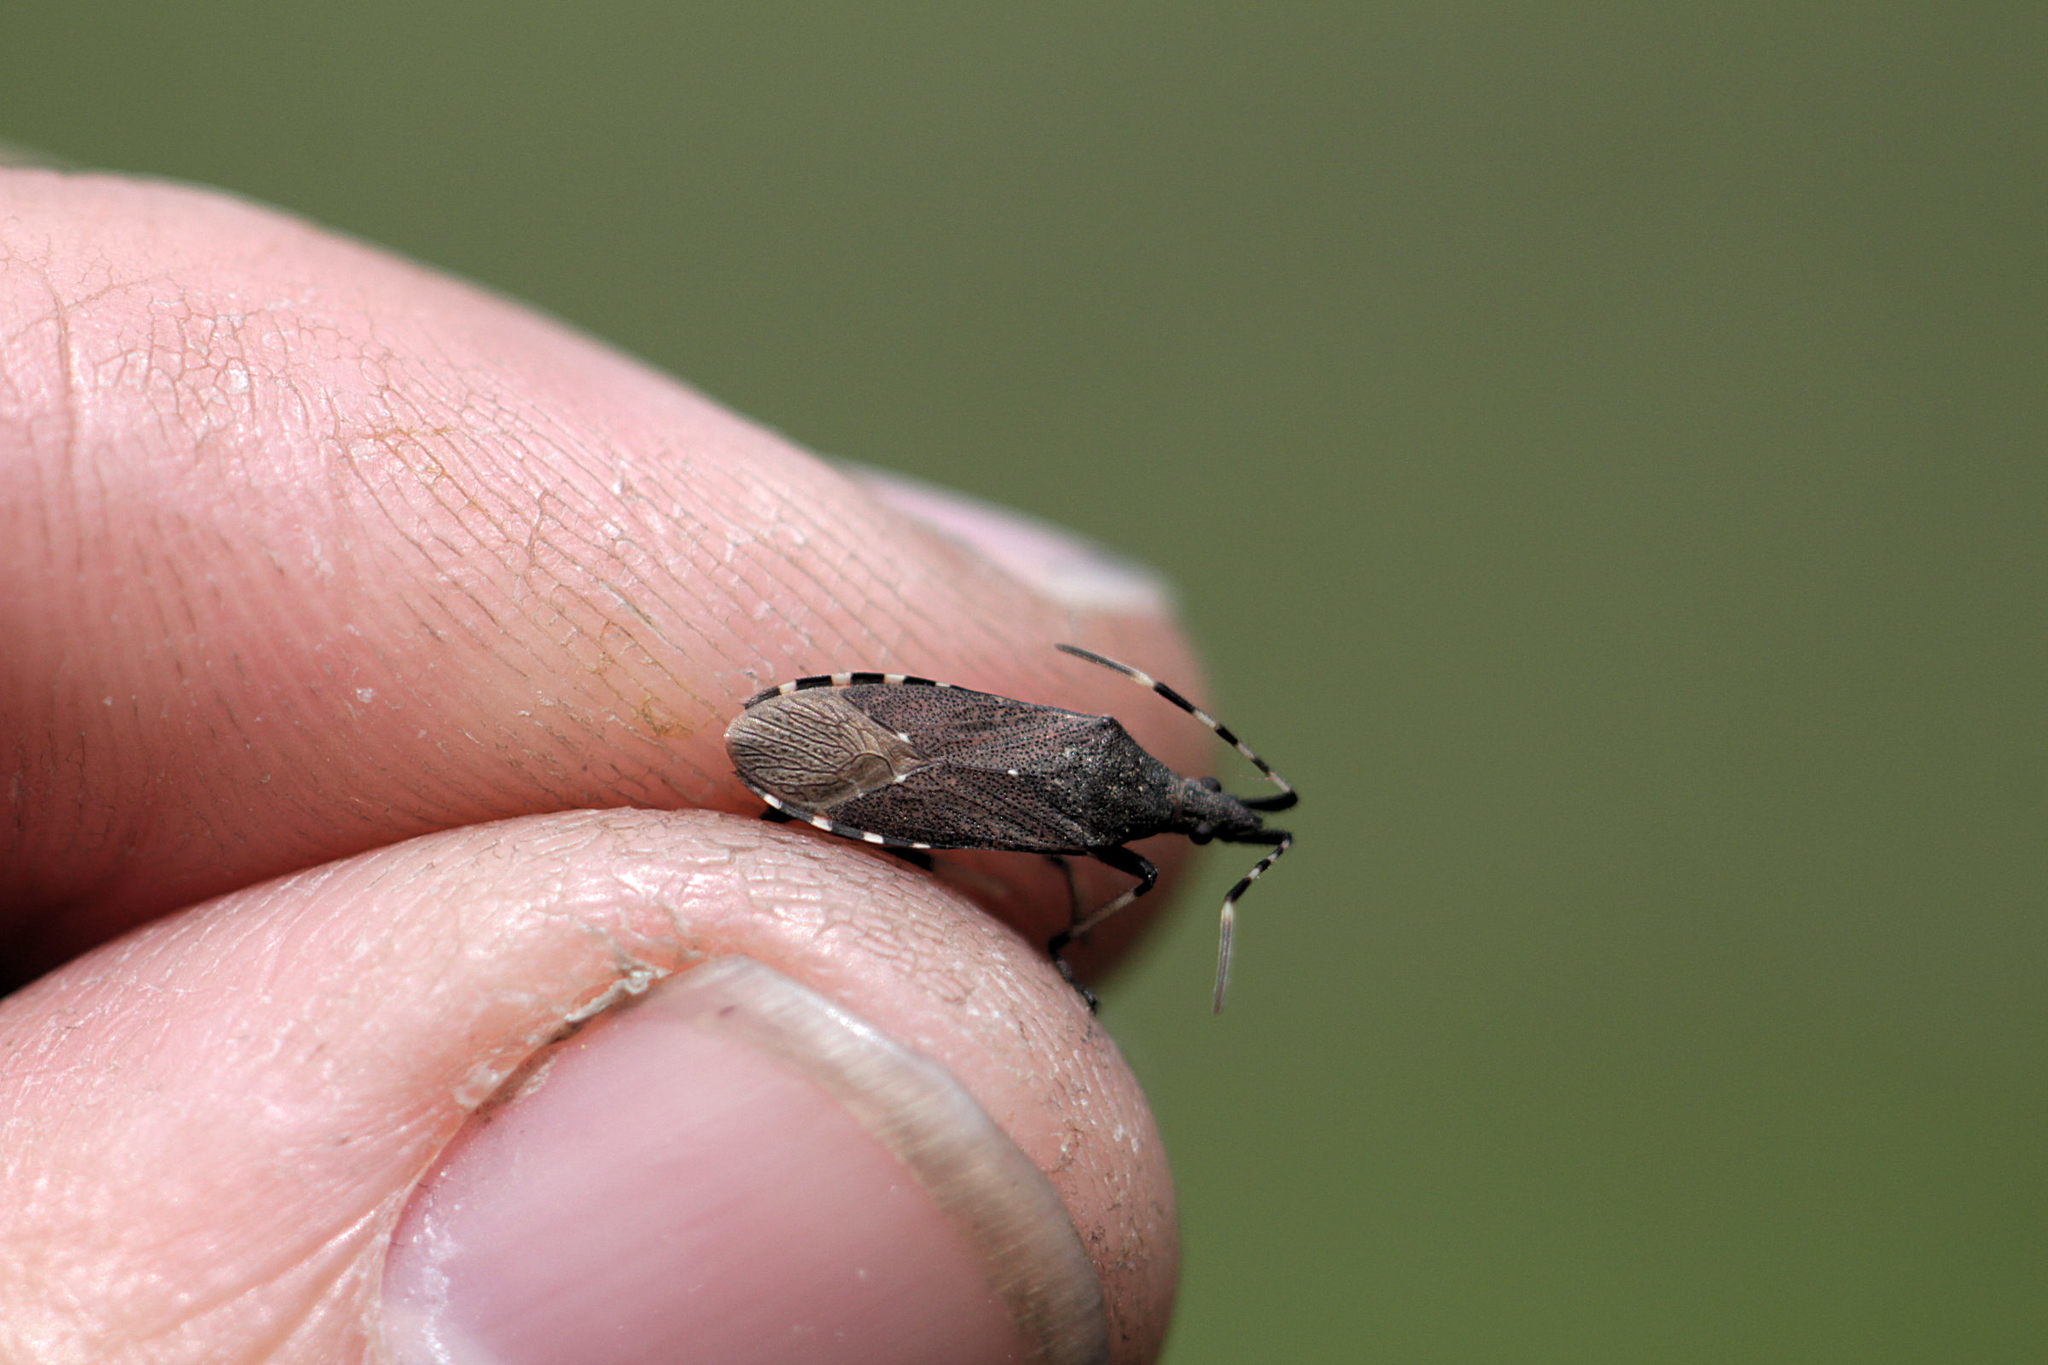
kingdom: Animalia
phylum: Arthropoda
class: Insecta
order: Hemiptera
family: Stenocephalidae
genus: Dicranocephalus
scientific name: Dicranocephalus agilis
